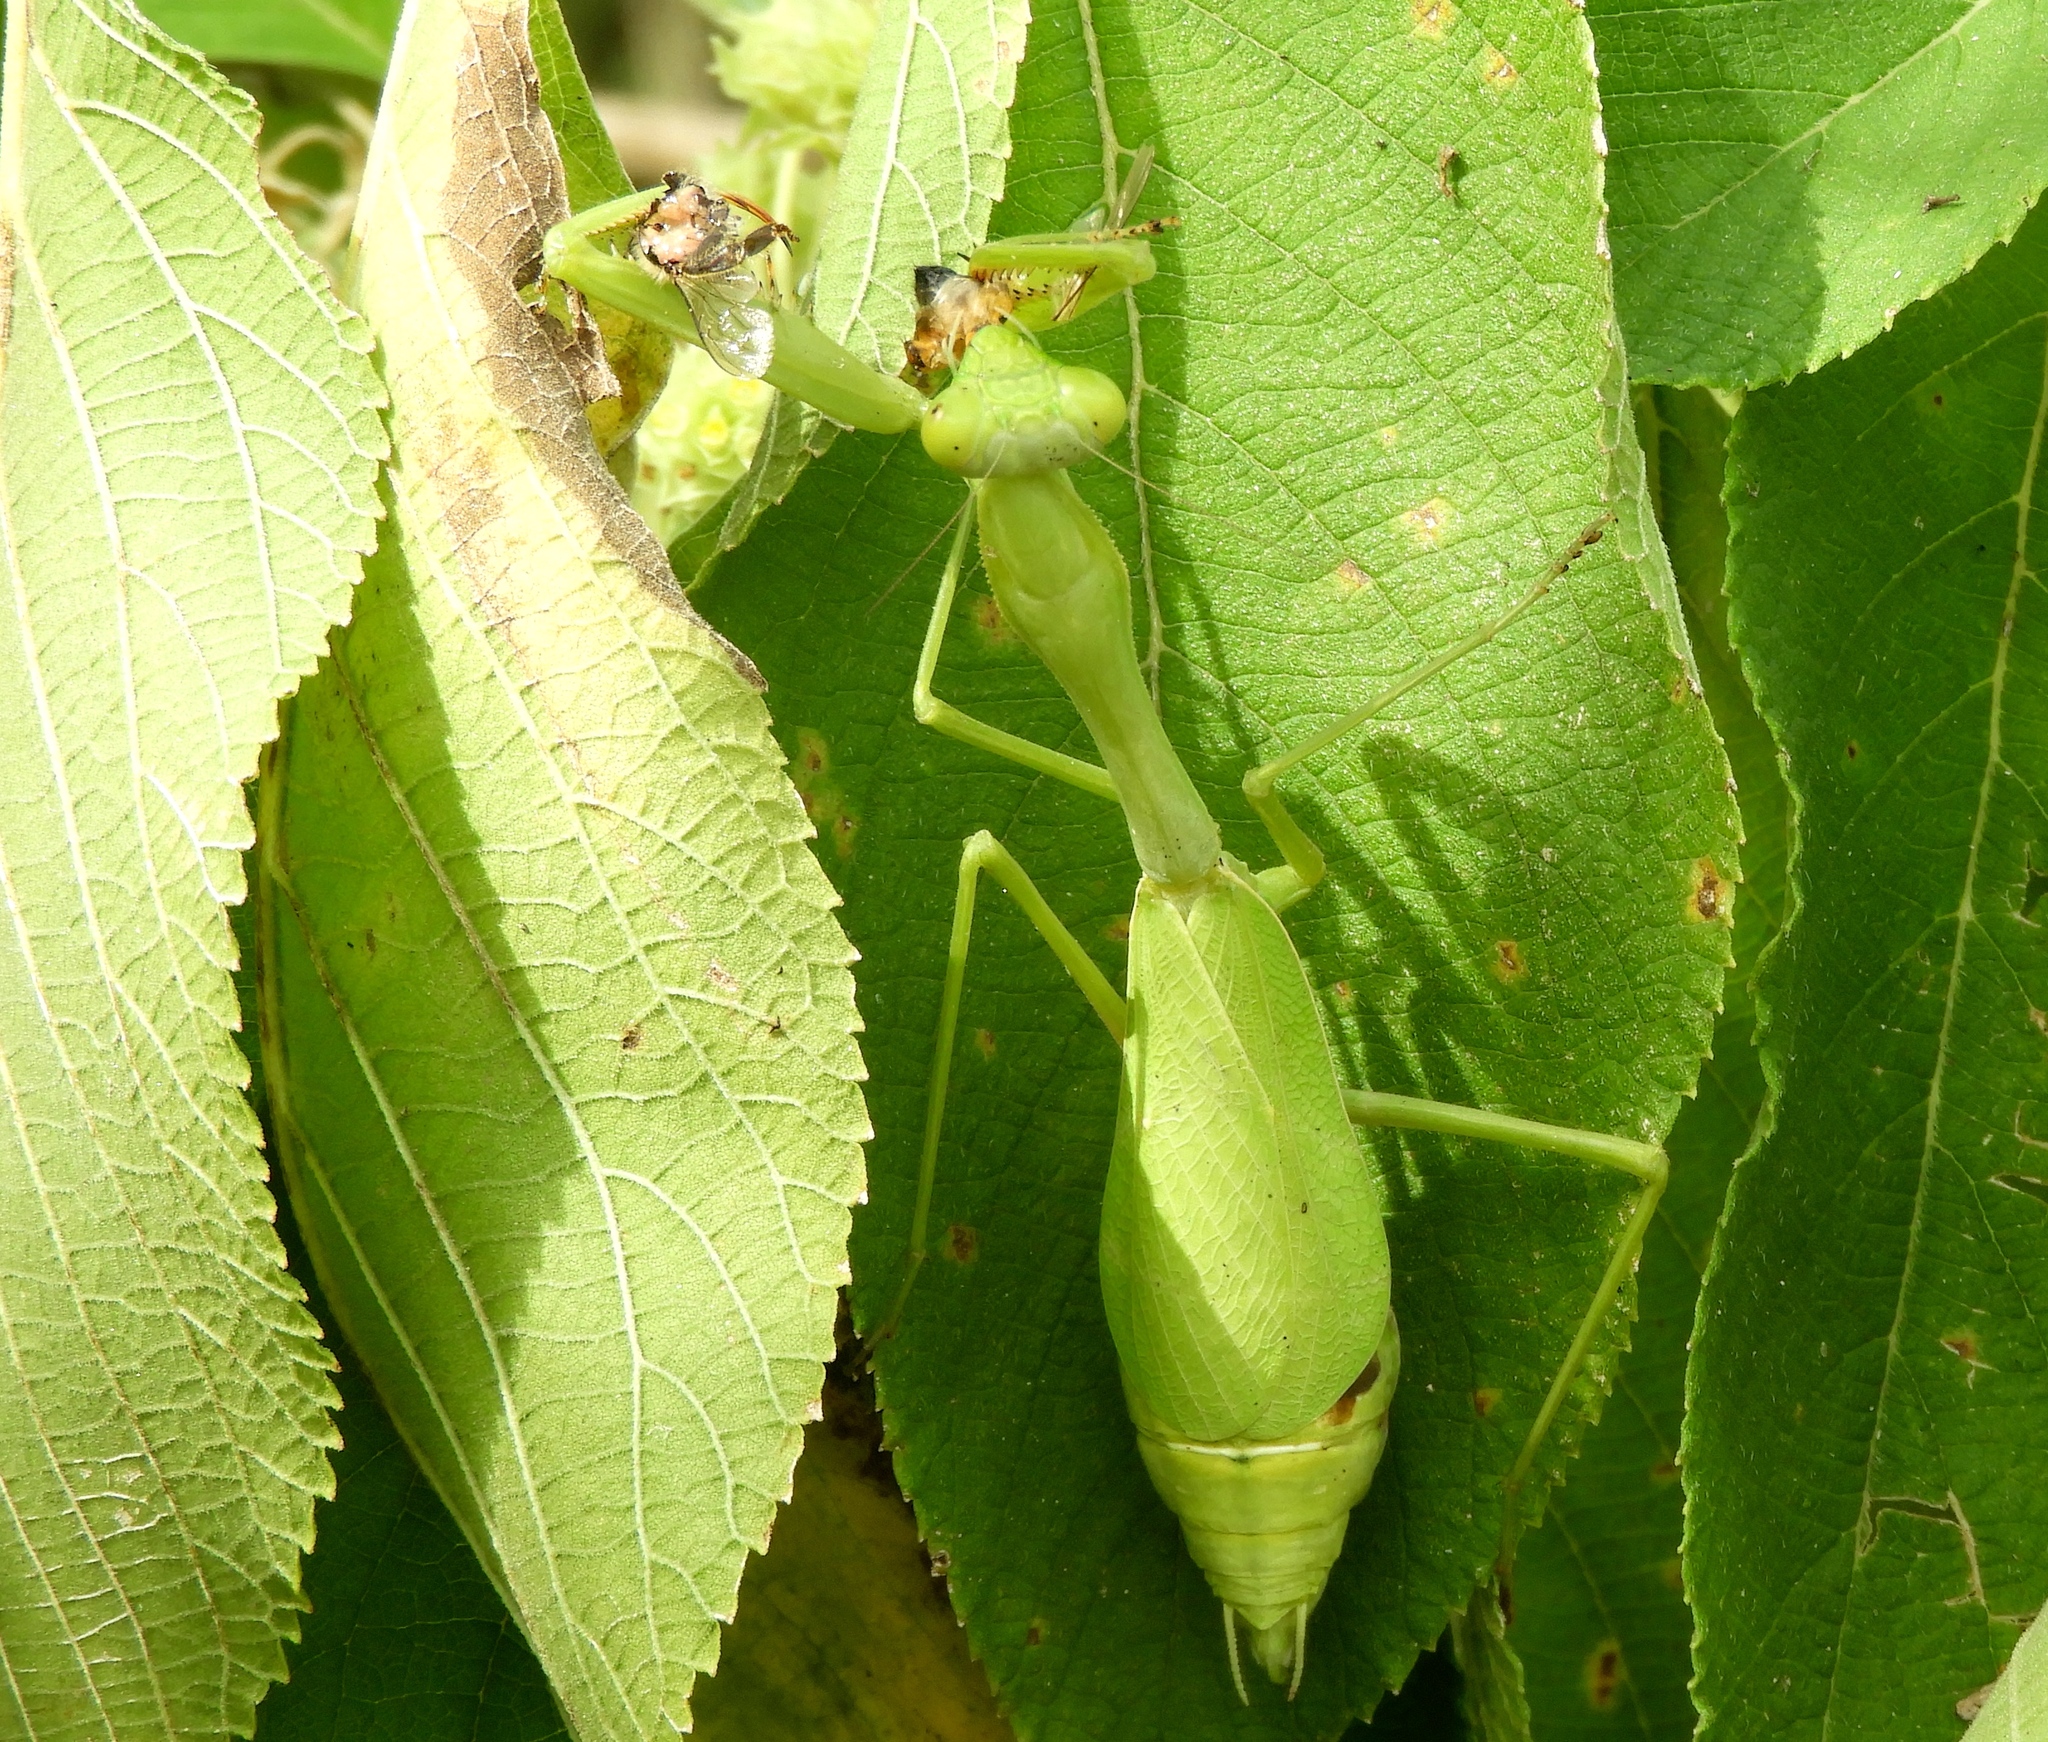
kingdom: Animalia
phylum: Arthropoda
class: Insecta
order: Mantodea
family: Mantidae
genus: Stagmomantis
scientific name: Stagmomantis limbata
